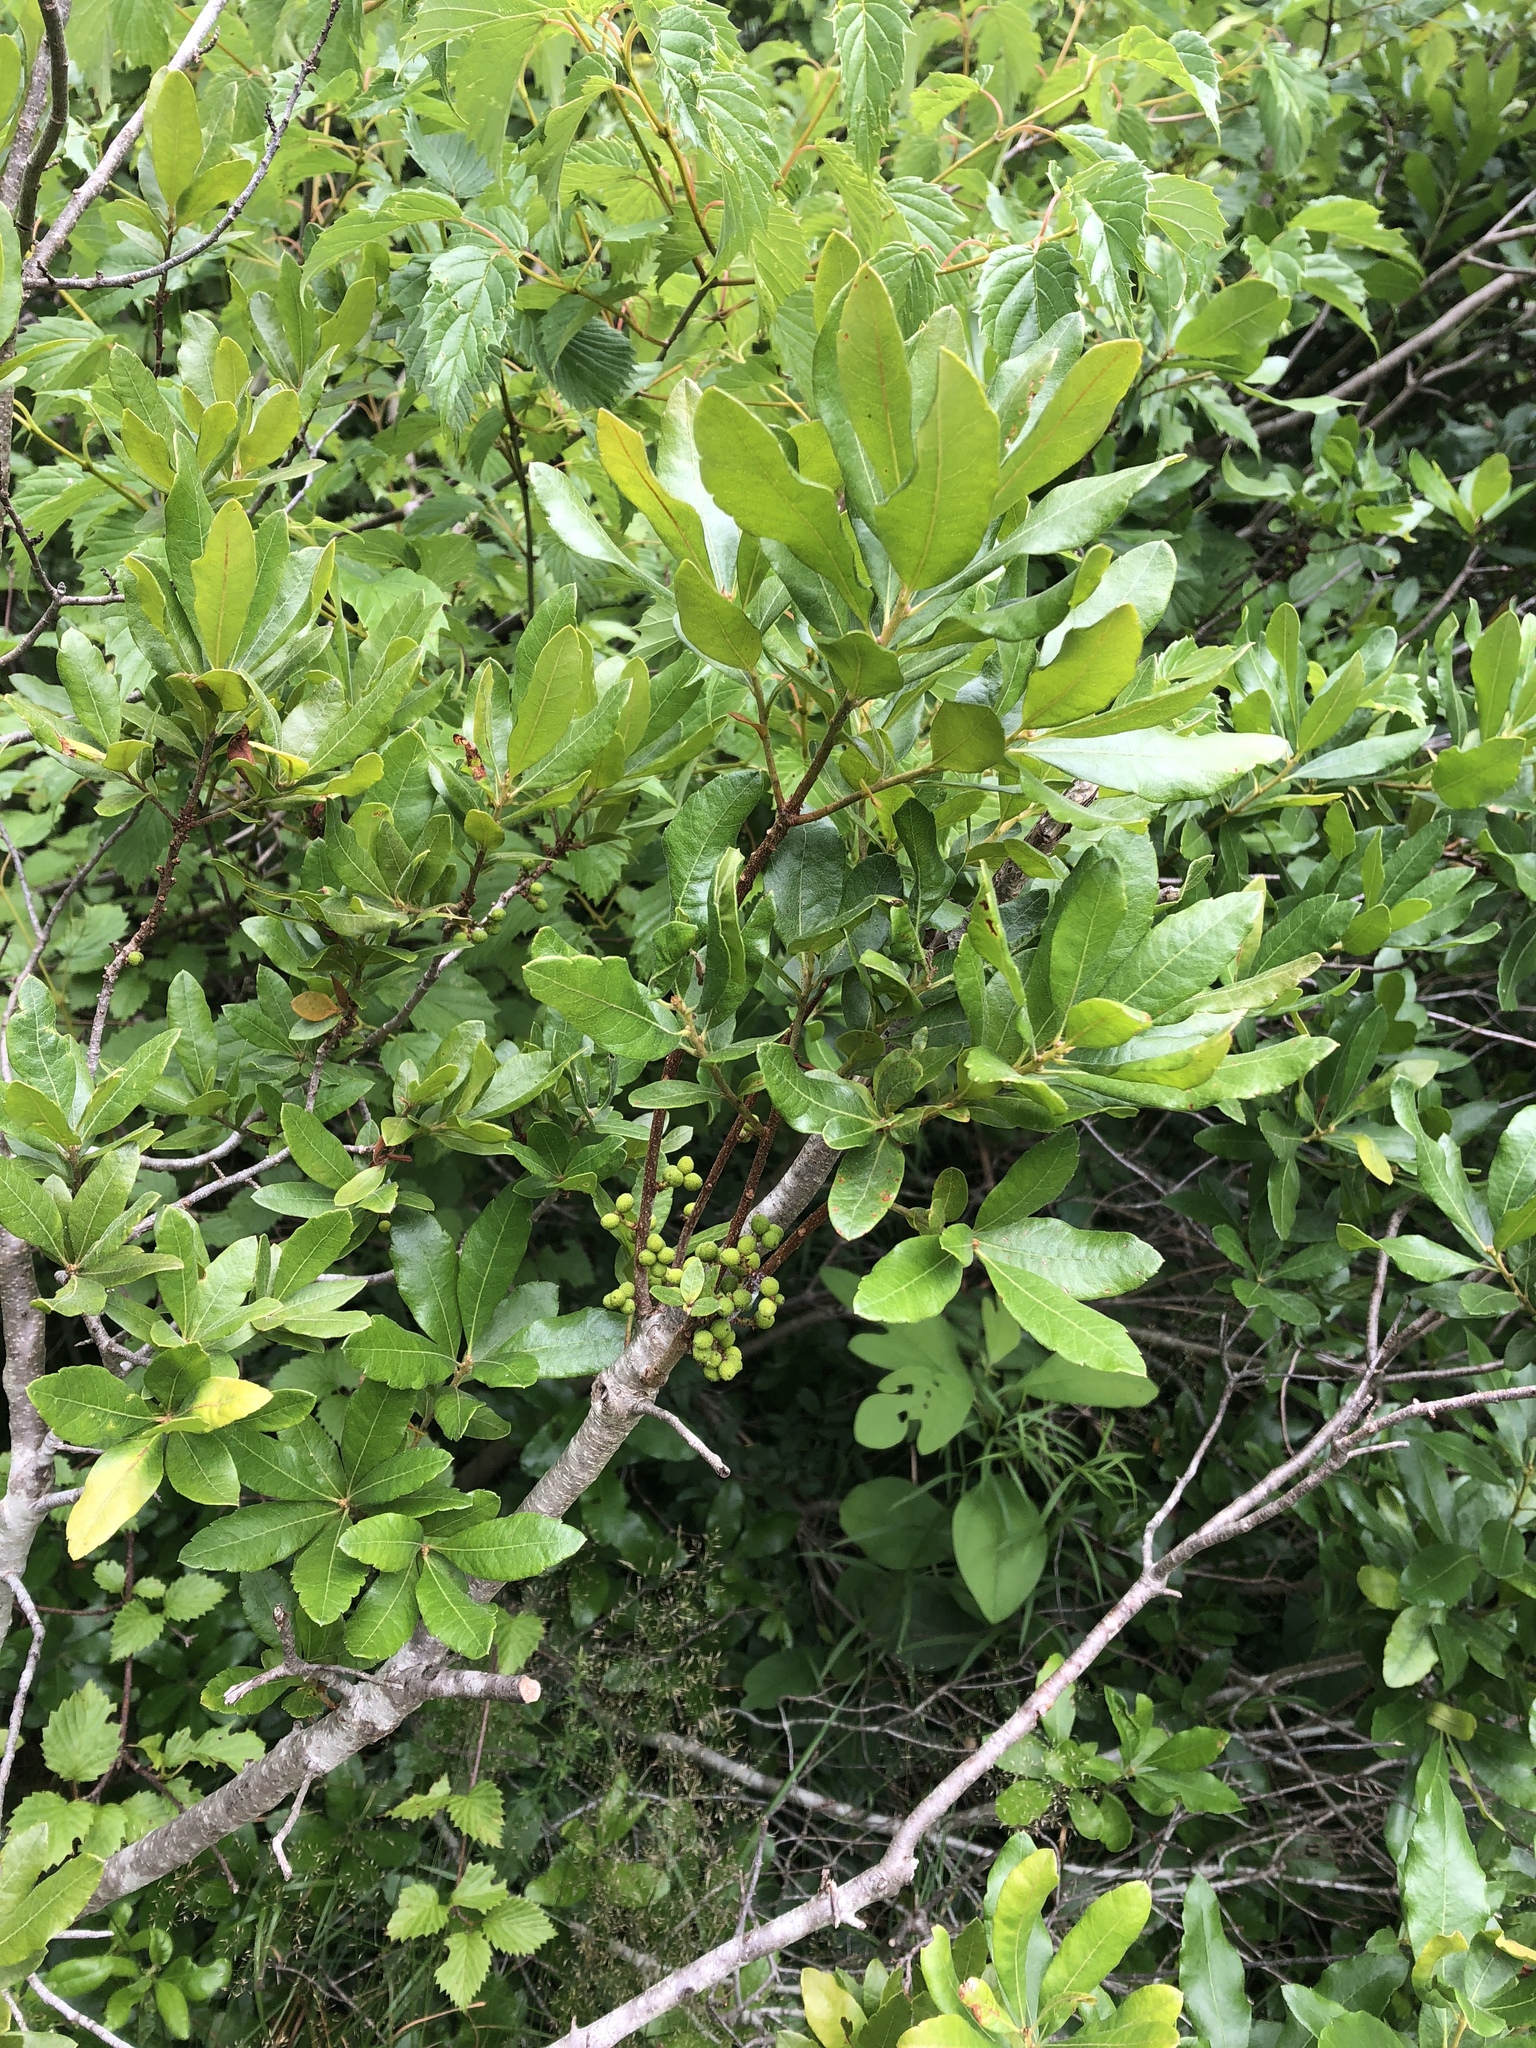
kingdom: Plantae
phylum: Tracheophyta
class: Magnoliopsida
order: Fagales
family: Myricaceae
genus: Morella
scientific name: Morella pensylvanica
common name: Northern bayberry
